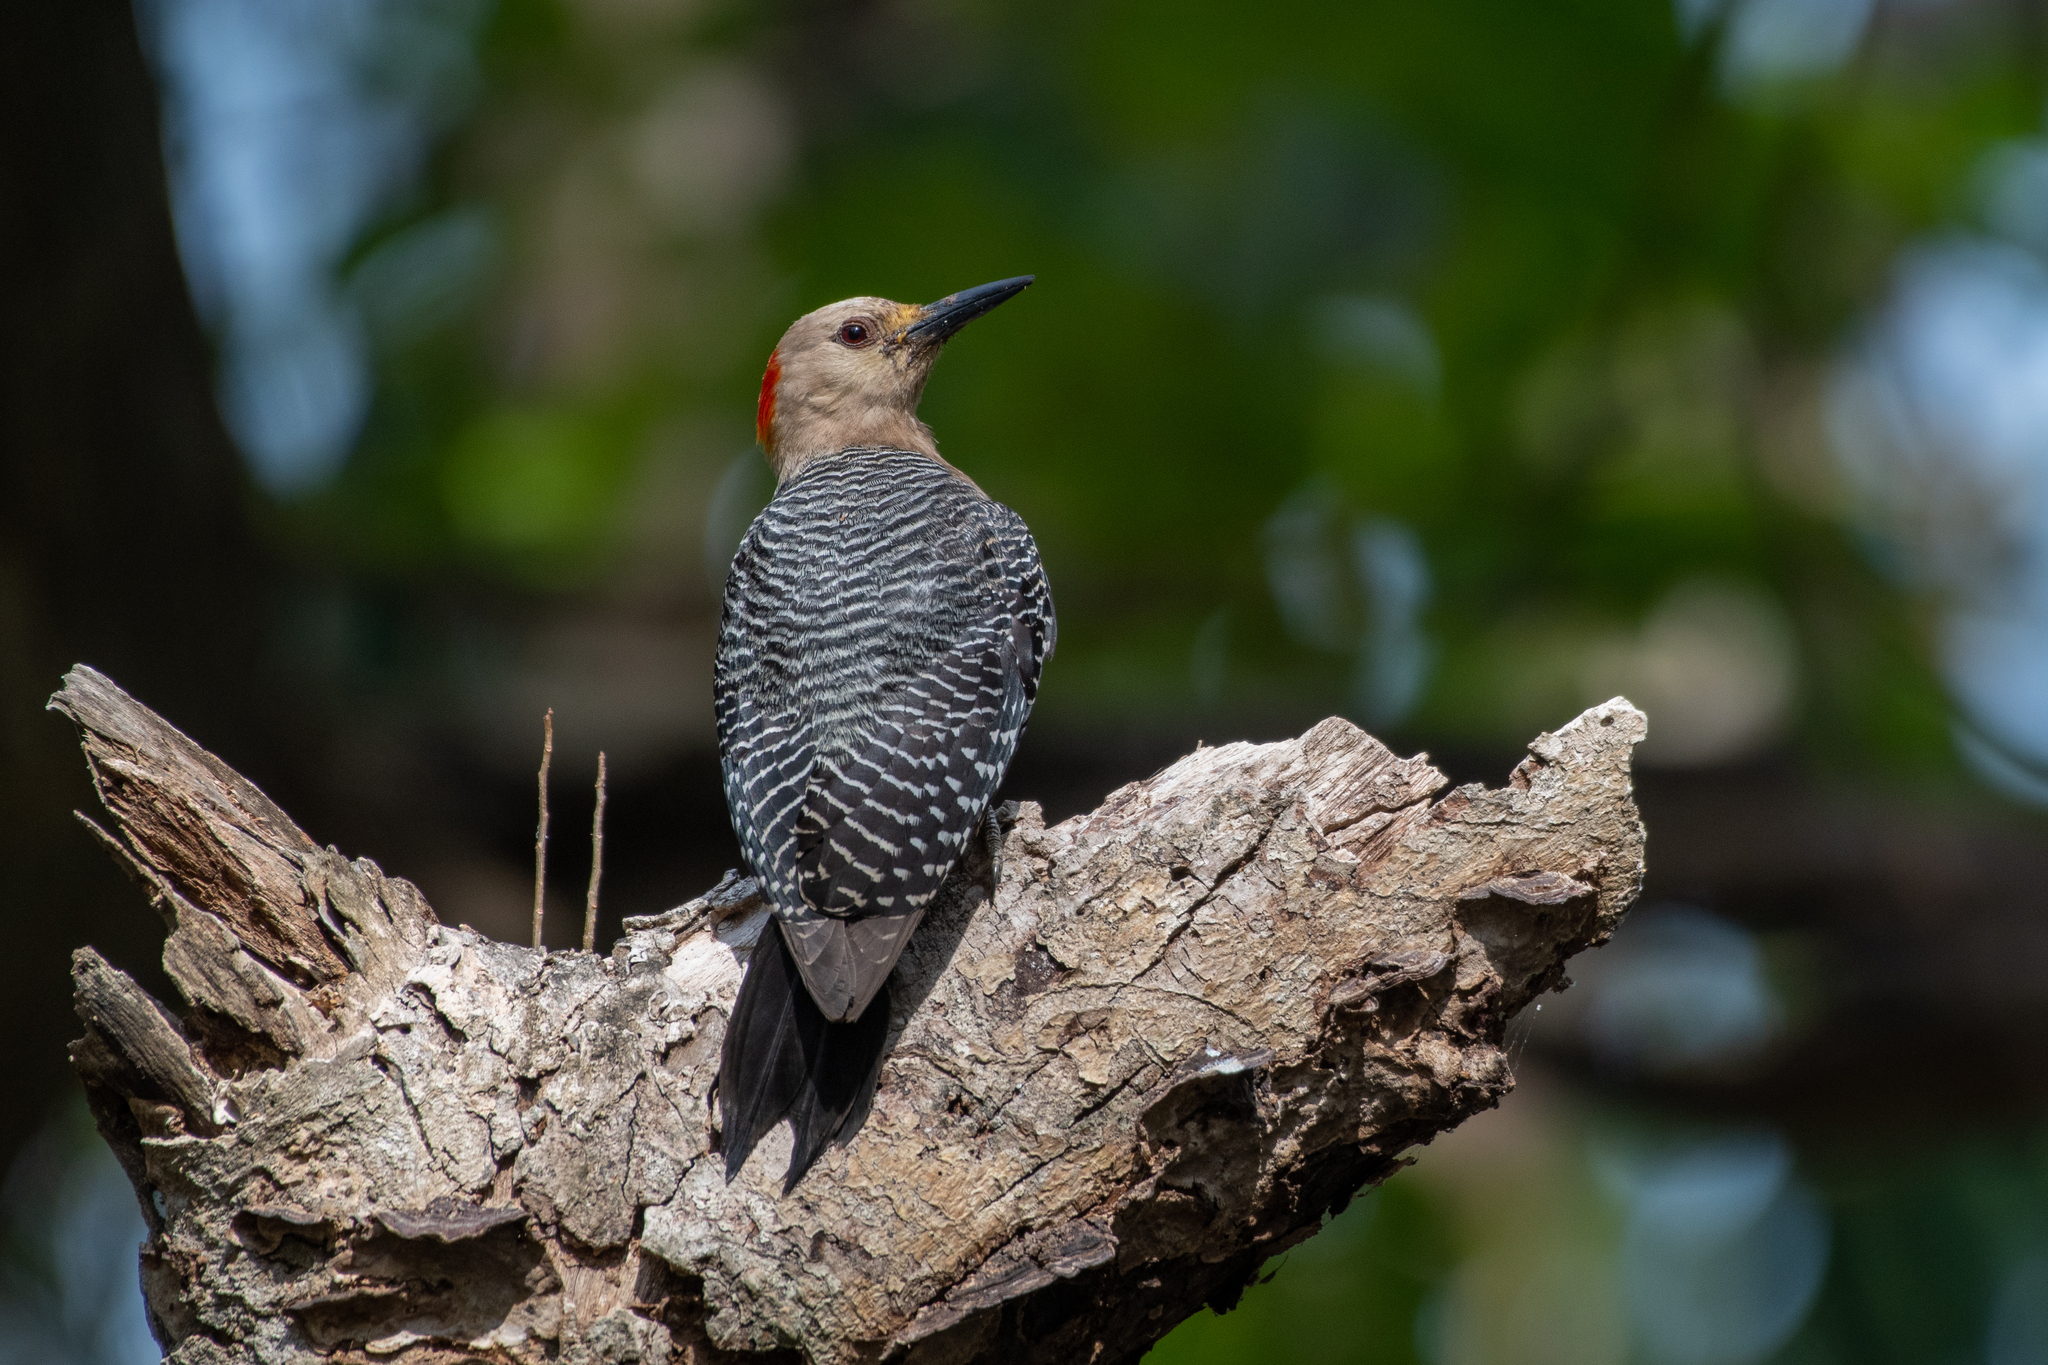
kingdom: Animalia
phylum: Chordata
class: Aves
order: Piciformes
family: Picidae
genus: Melanerpes
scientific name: Melanerpes santacruzi
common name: Velasquez's woodpecker
